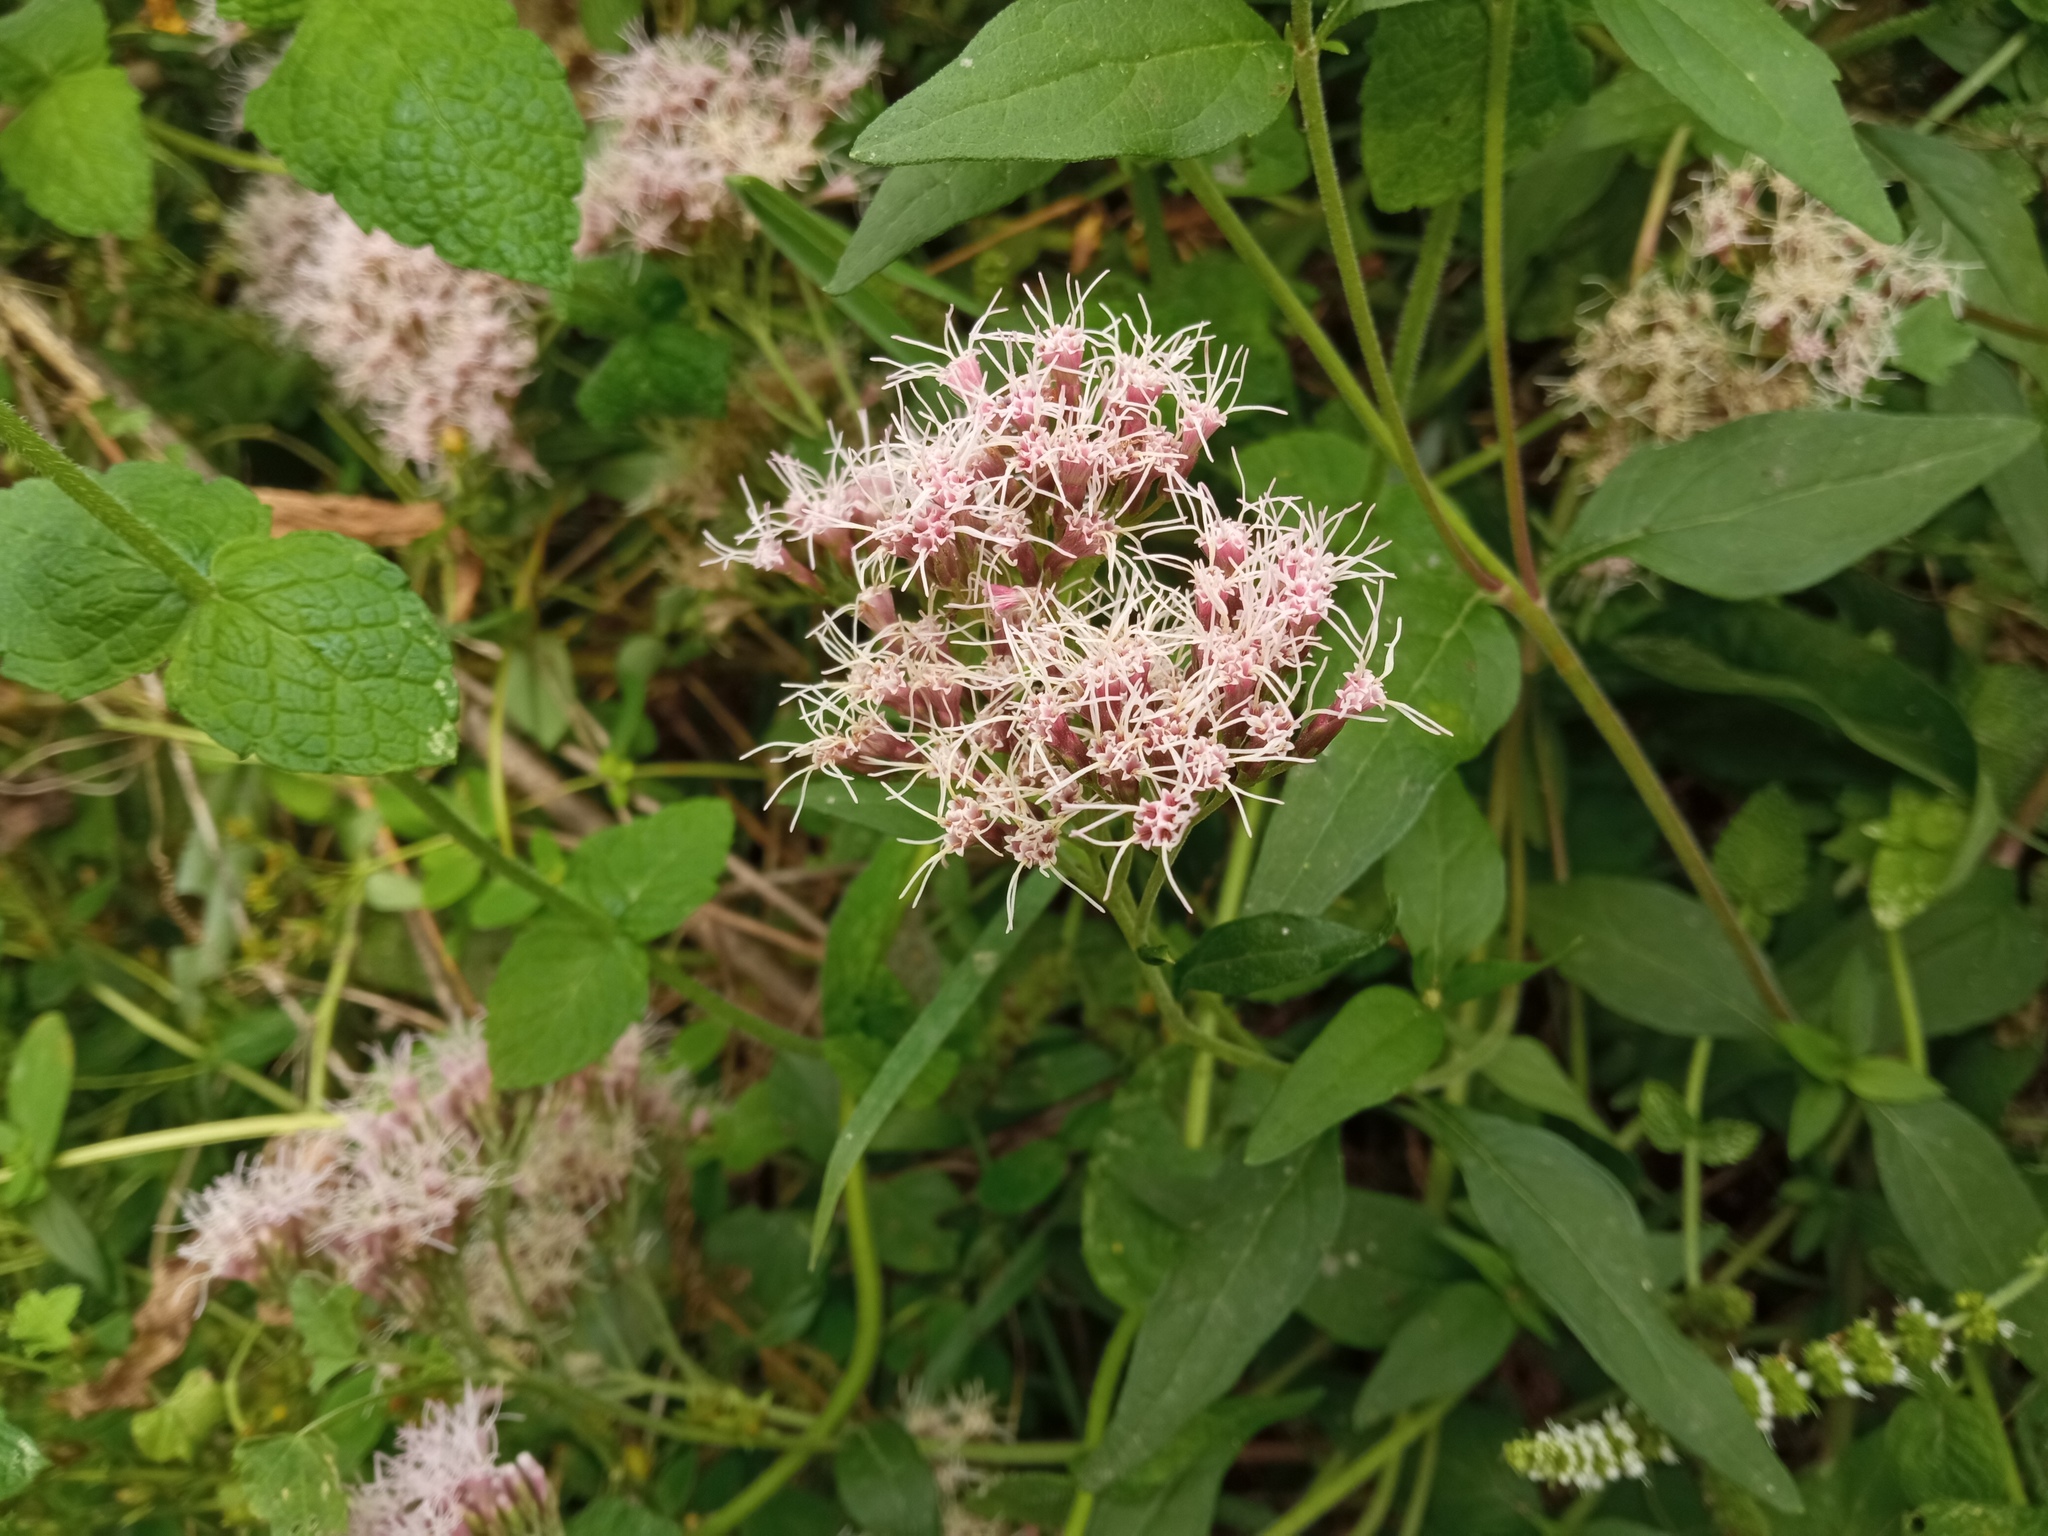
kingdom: Plantae
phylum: Tracheophyta
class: Magnoliopsida
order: Asterales
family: Asteraceae
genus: Eupatorium
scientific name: Eupatorium cannabinum
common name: Hemp-agrimony
